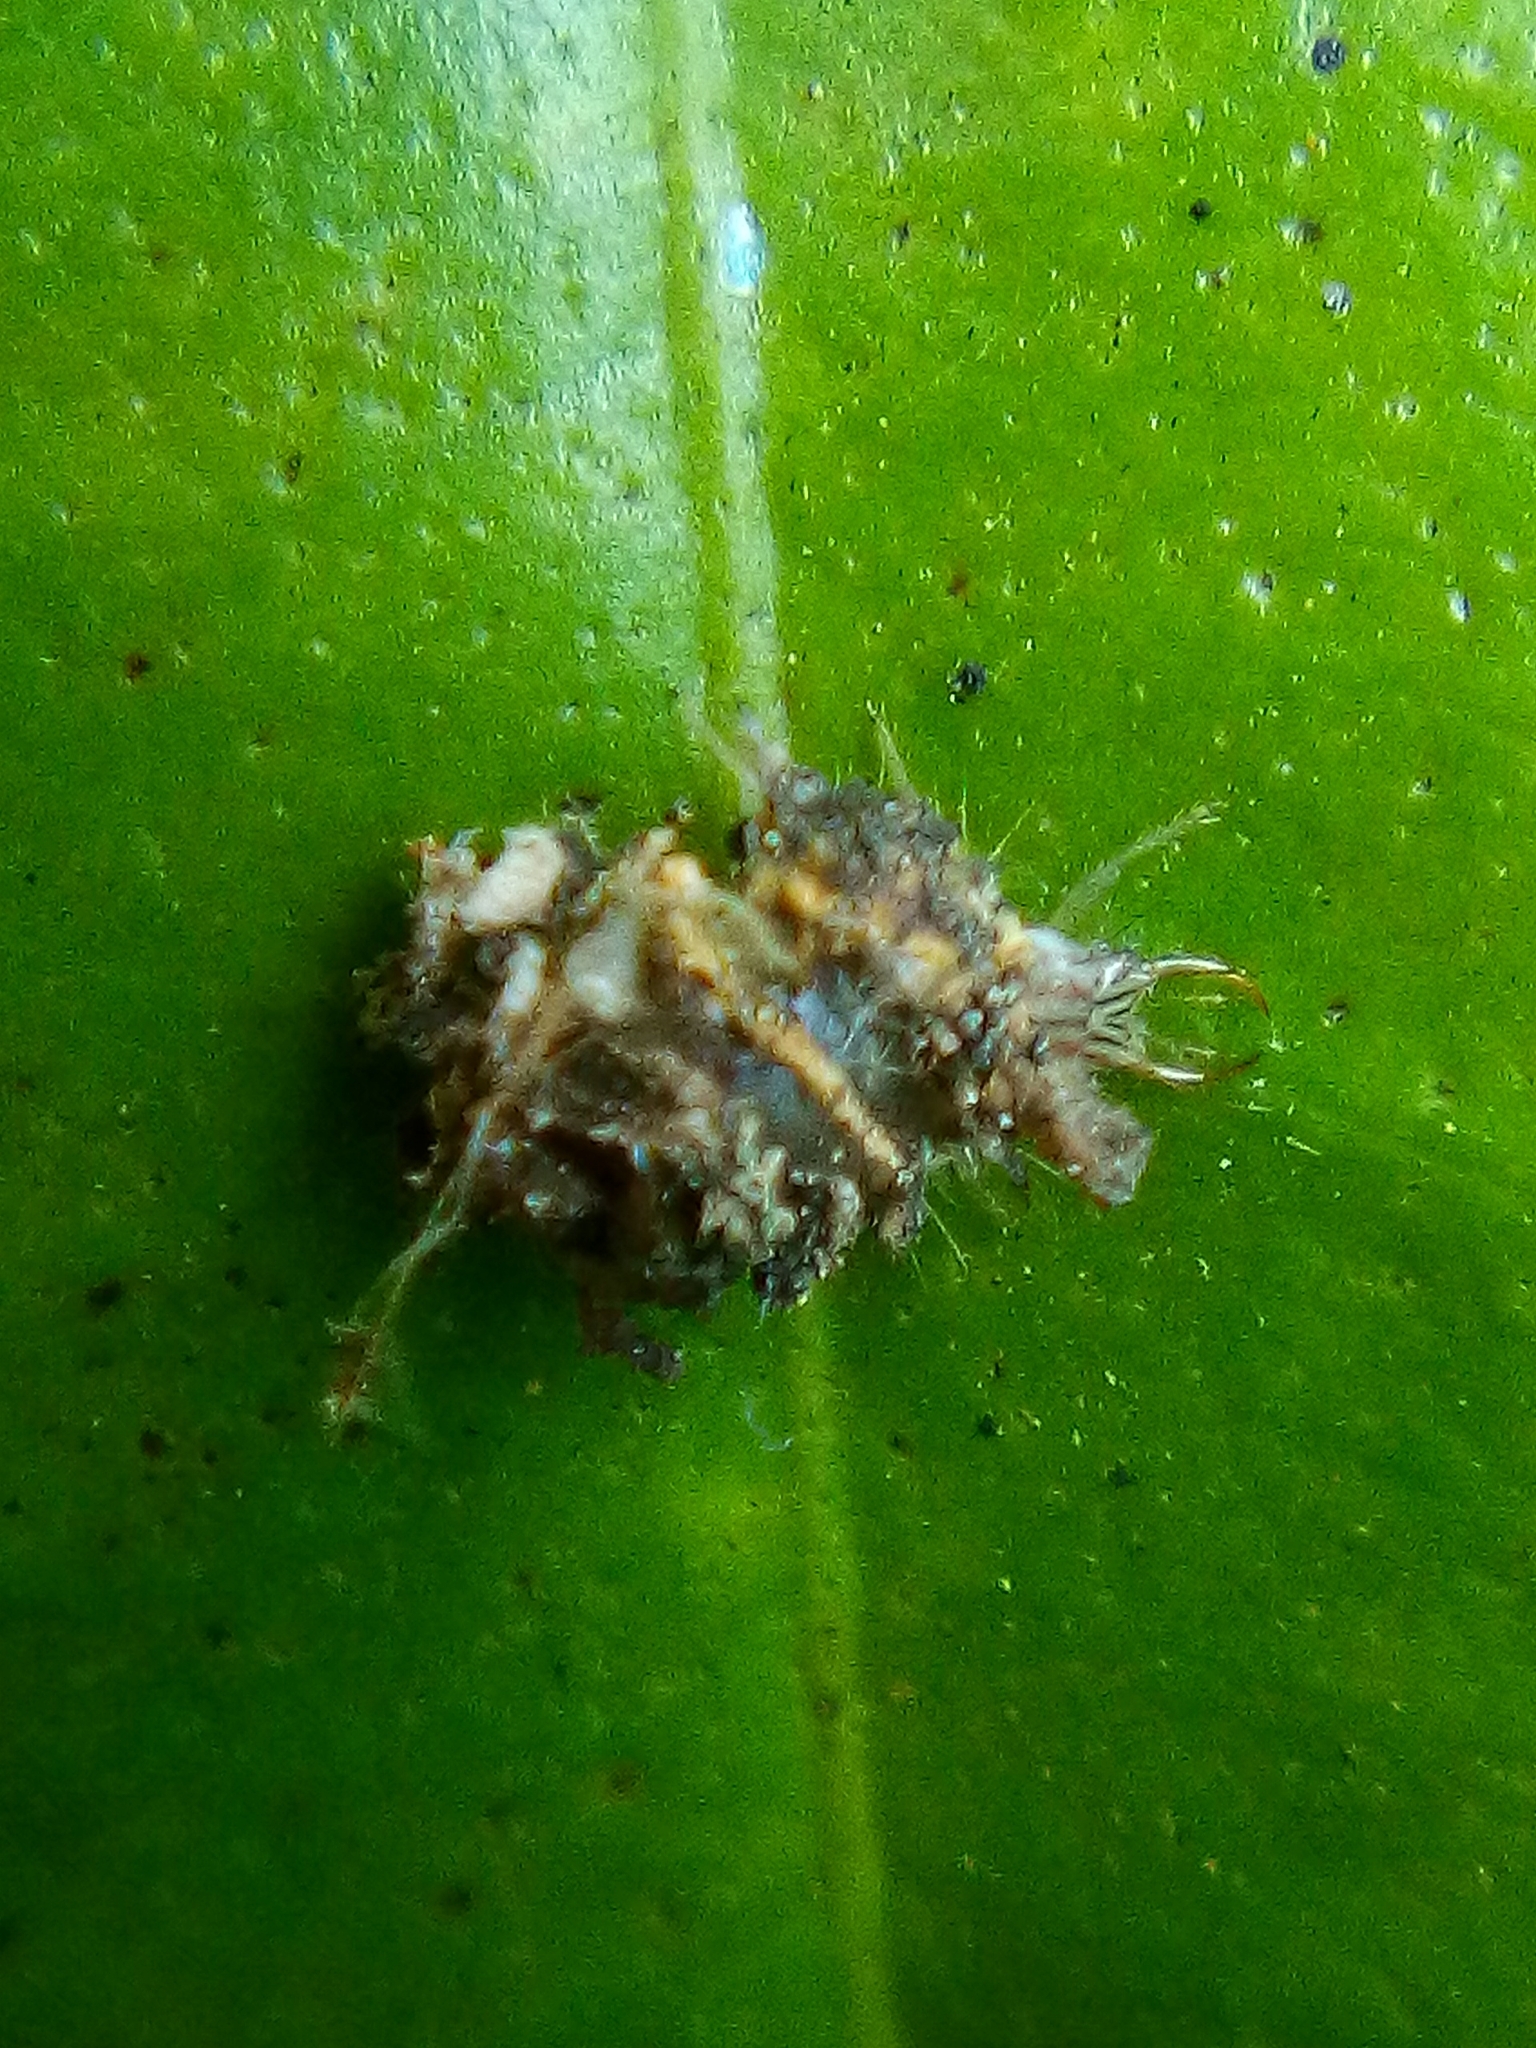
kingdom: Animalia
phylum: Arthropoda
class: Insecta
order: Neuroptera
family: Chrysopidae
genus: Mallada
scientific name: Mallada basalis
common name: Green lacewing
